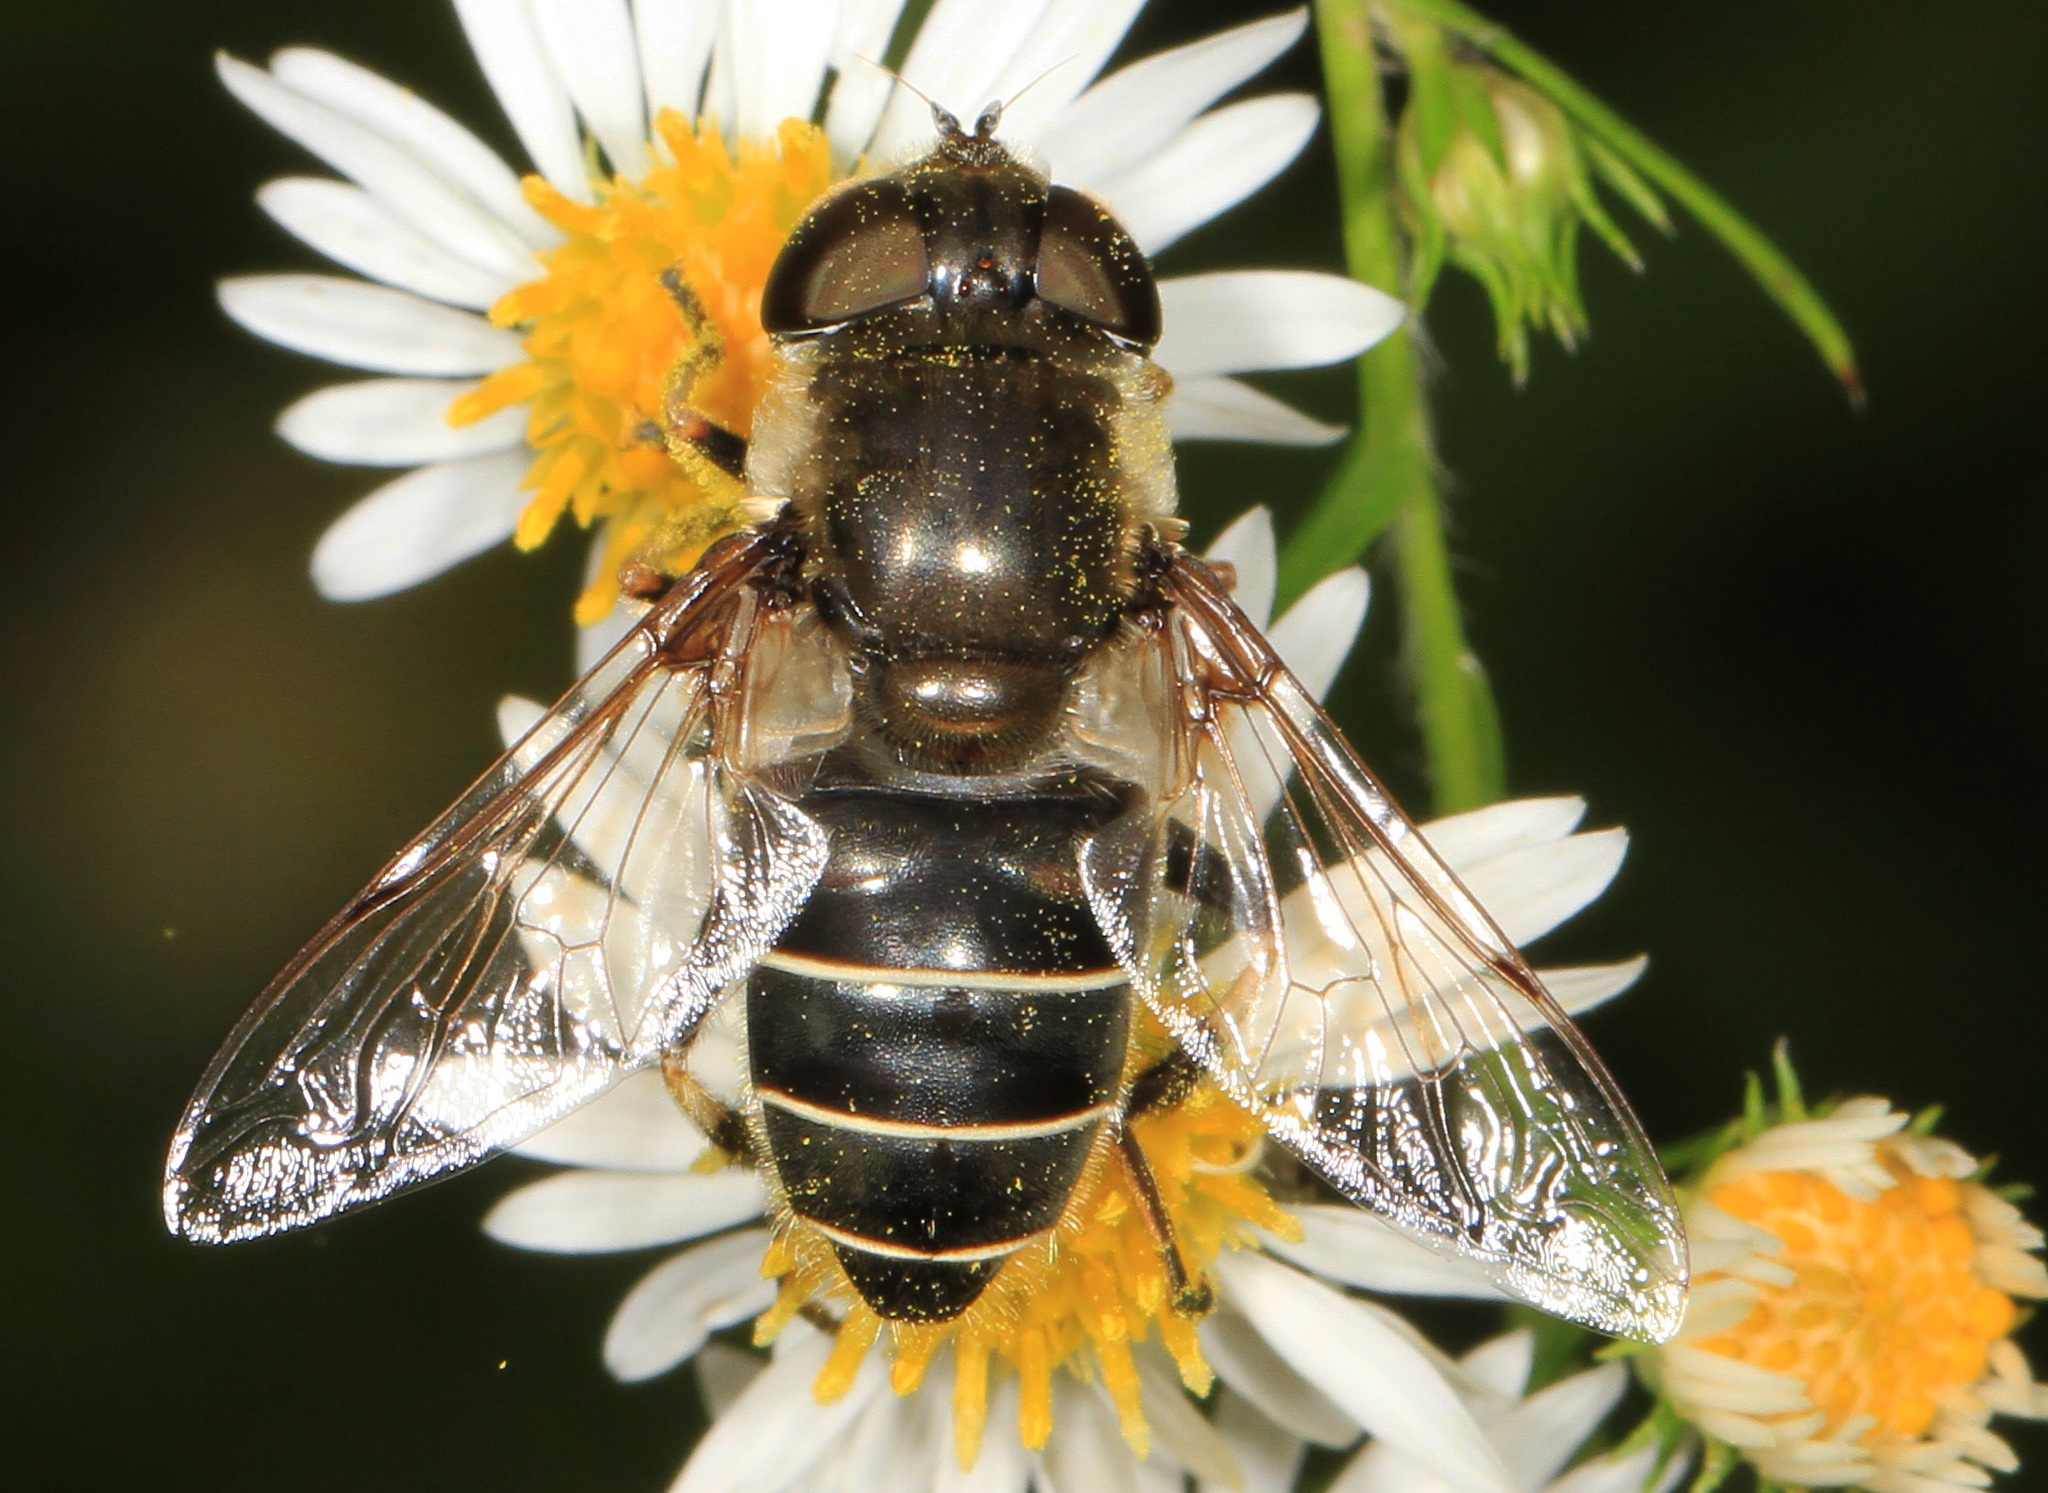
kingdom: Animalia
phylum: Arthropoda
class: Insecta
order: Diptera
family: Syrphidae
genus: Eristalis
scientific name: Eristalis dimidiata
